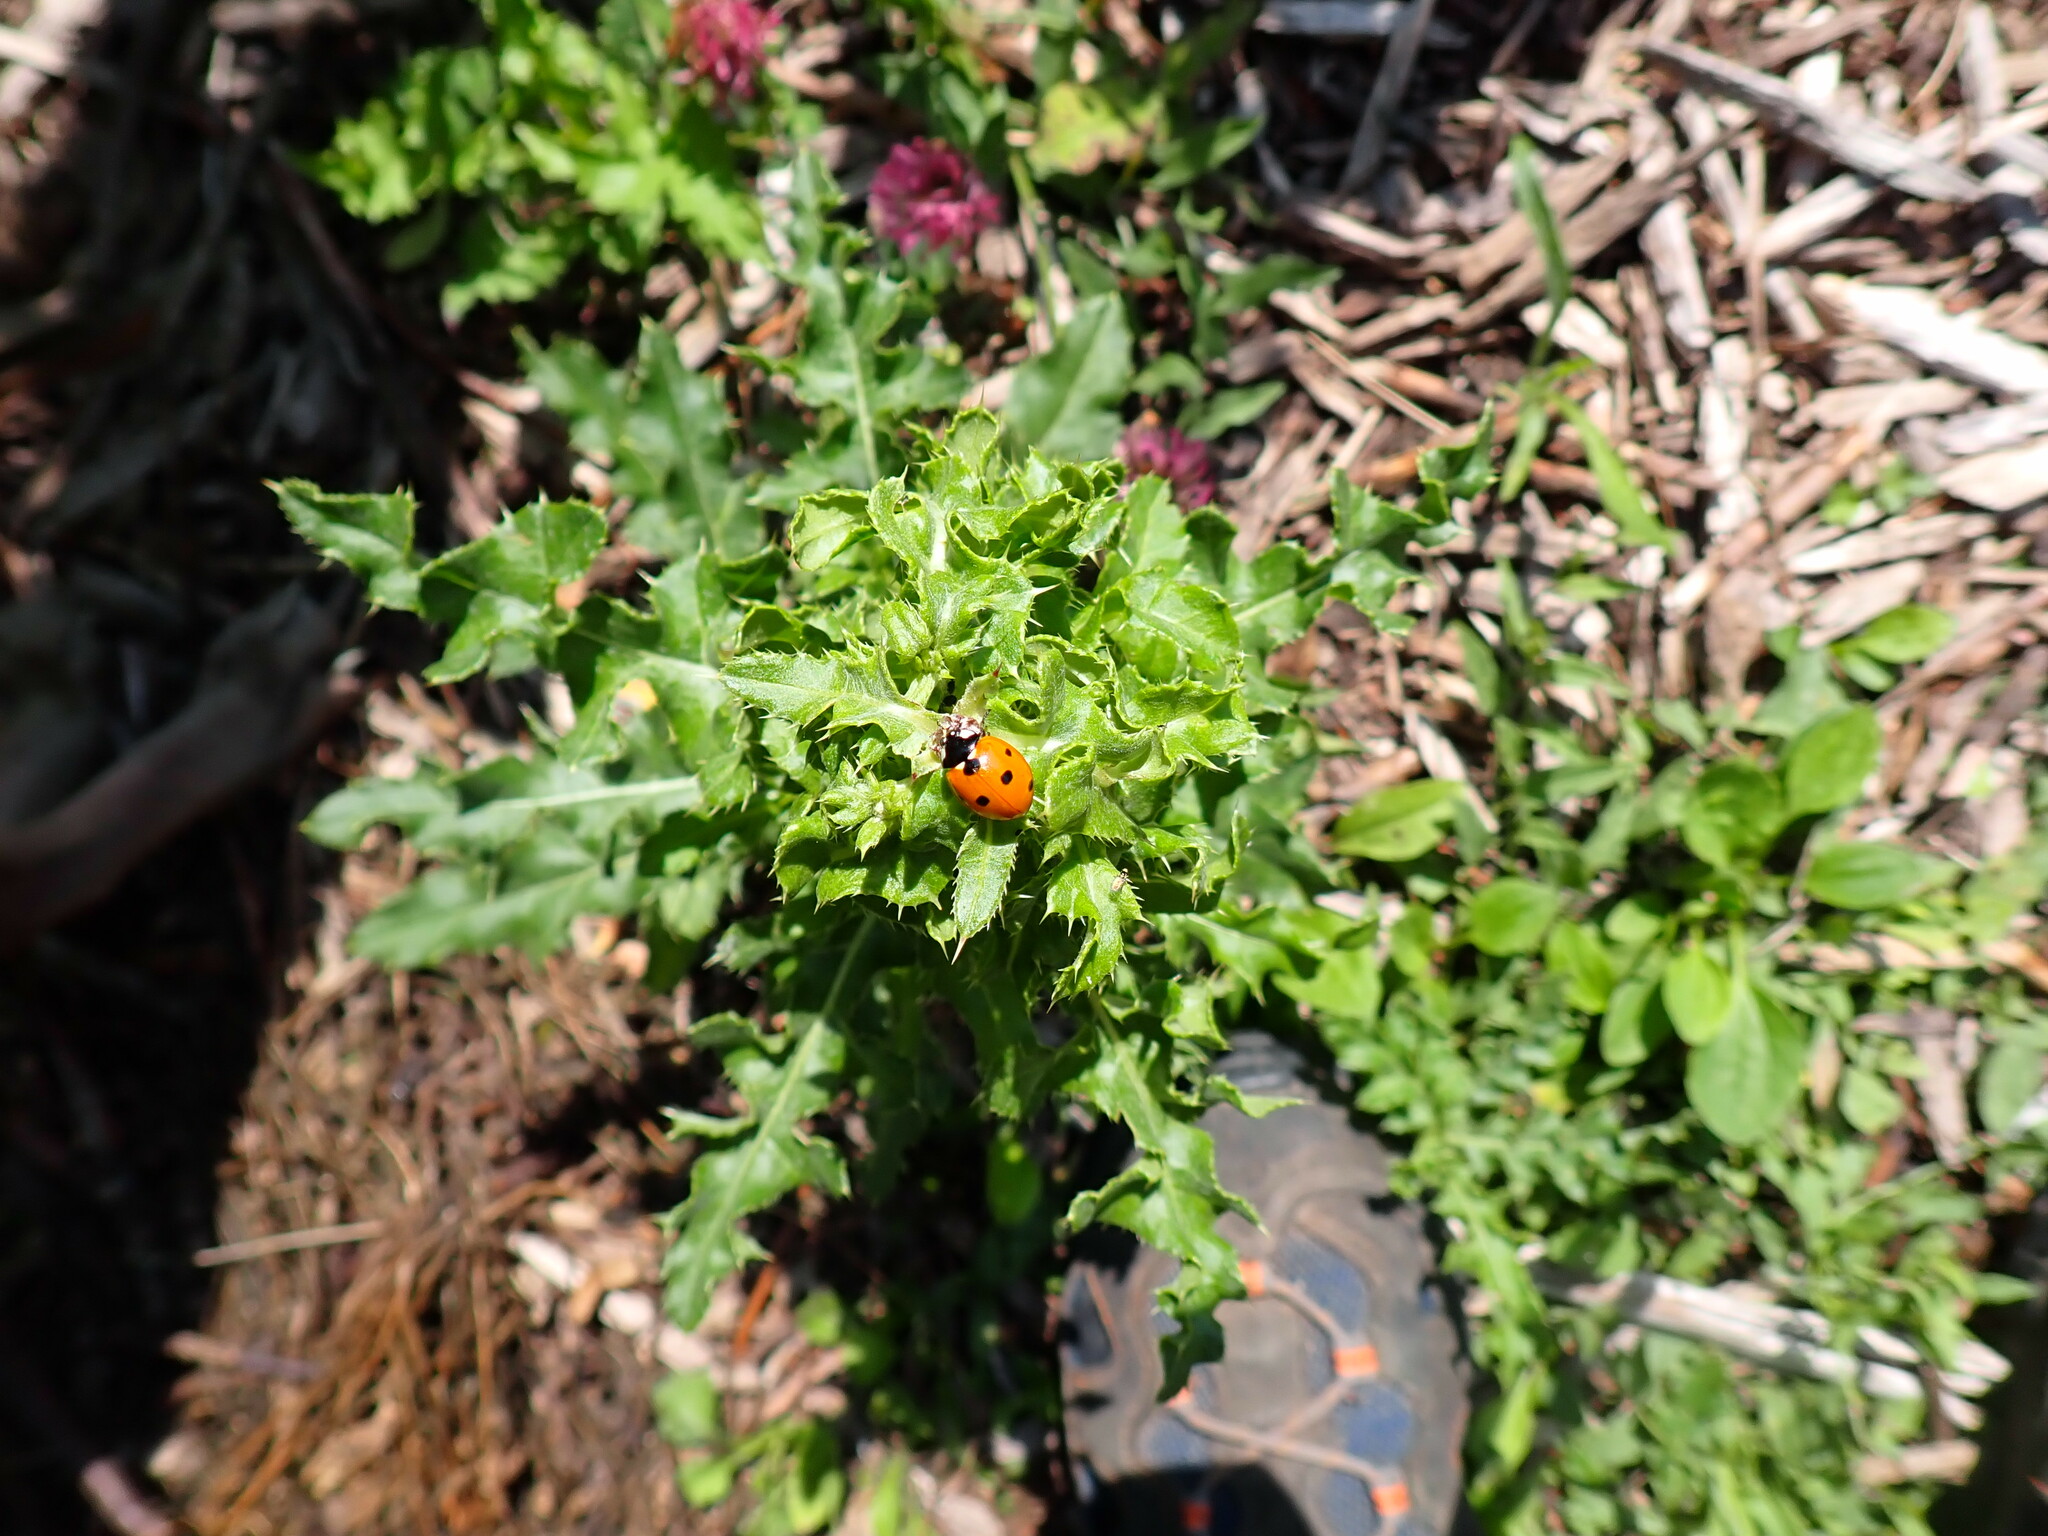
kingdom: Animalia
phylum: Arthropoda
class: Insecta
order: Coleoptera
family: Coccinellidae
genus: Coccinella
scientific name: Coccinella septempunctata
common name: Sevenspotted lady beetle
